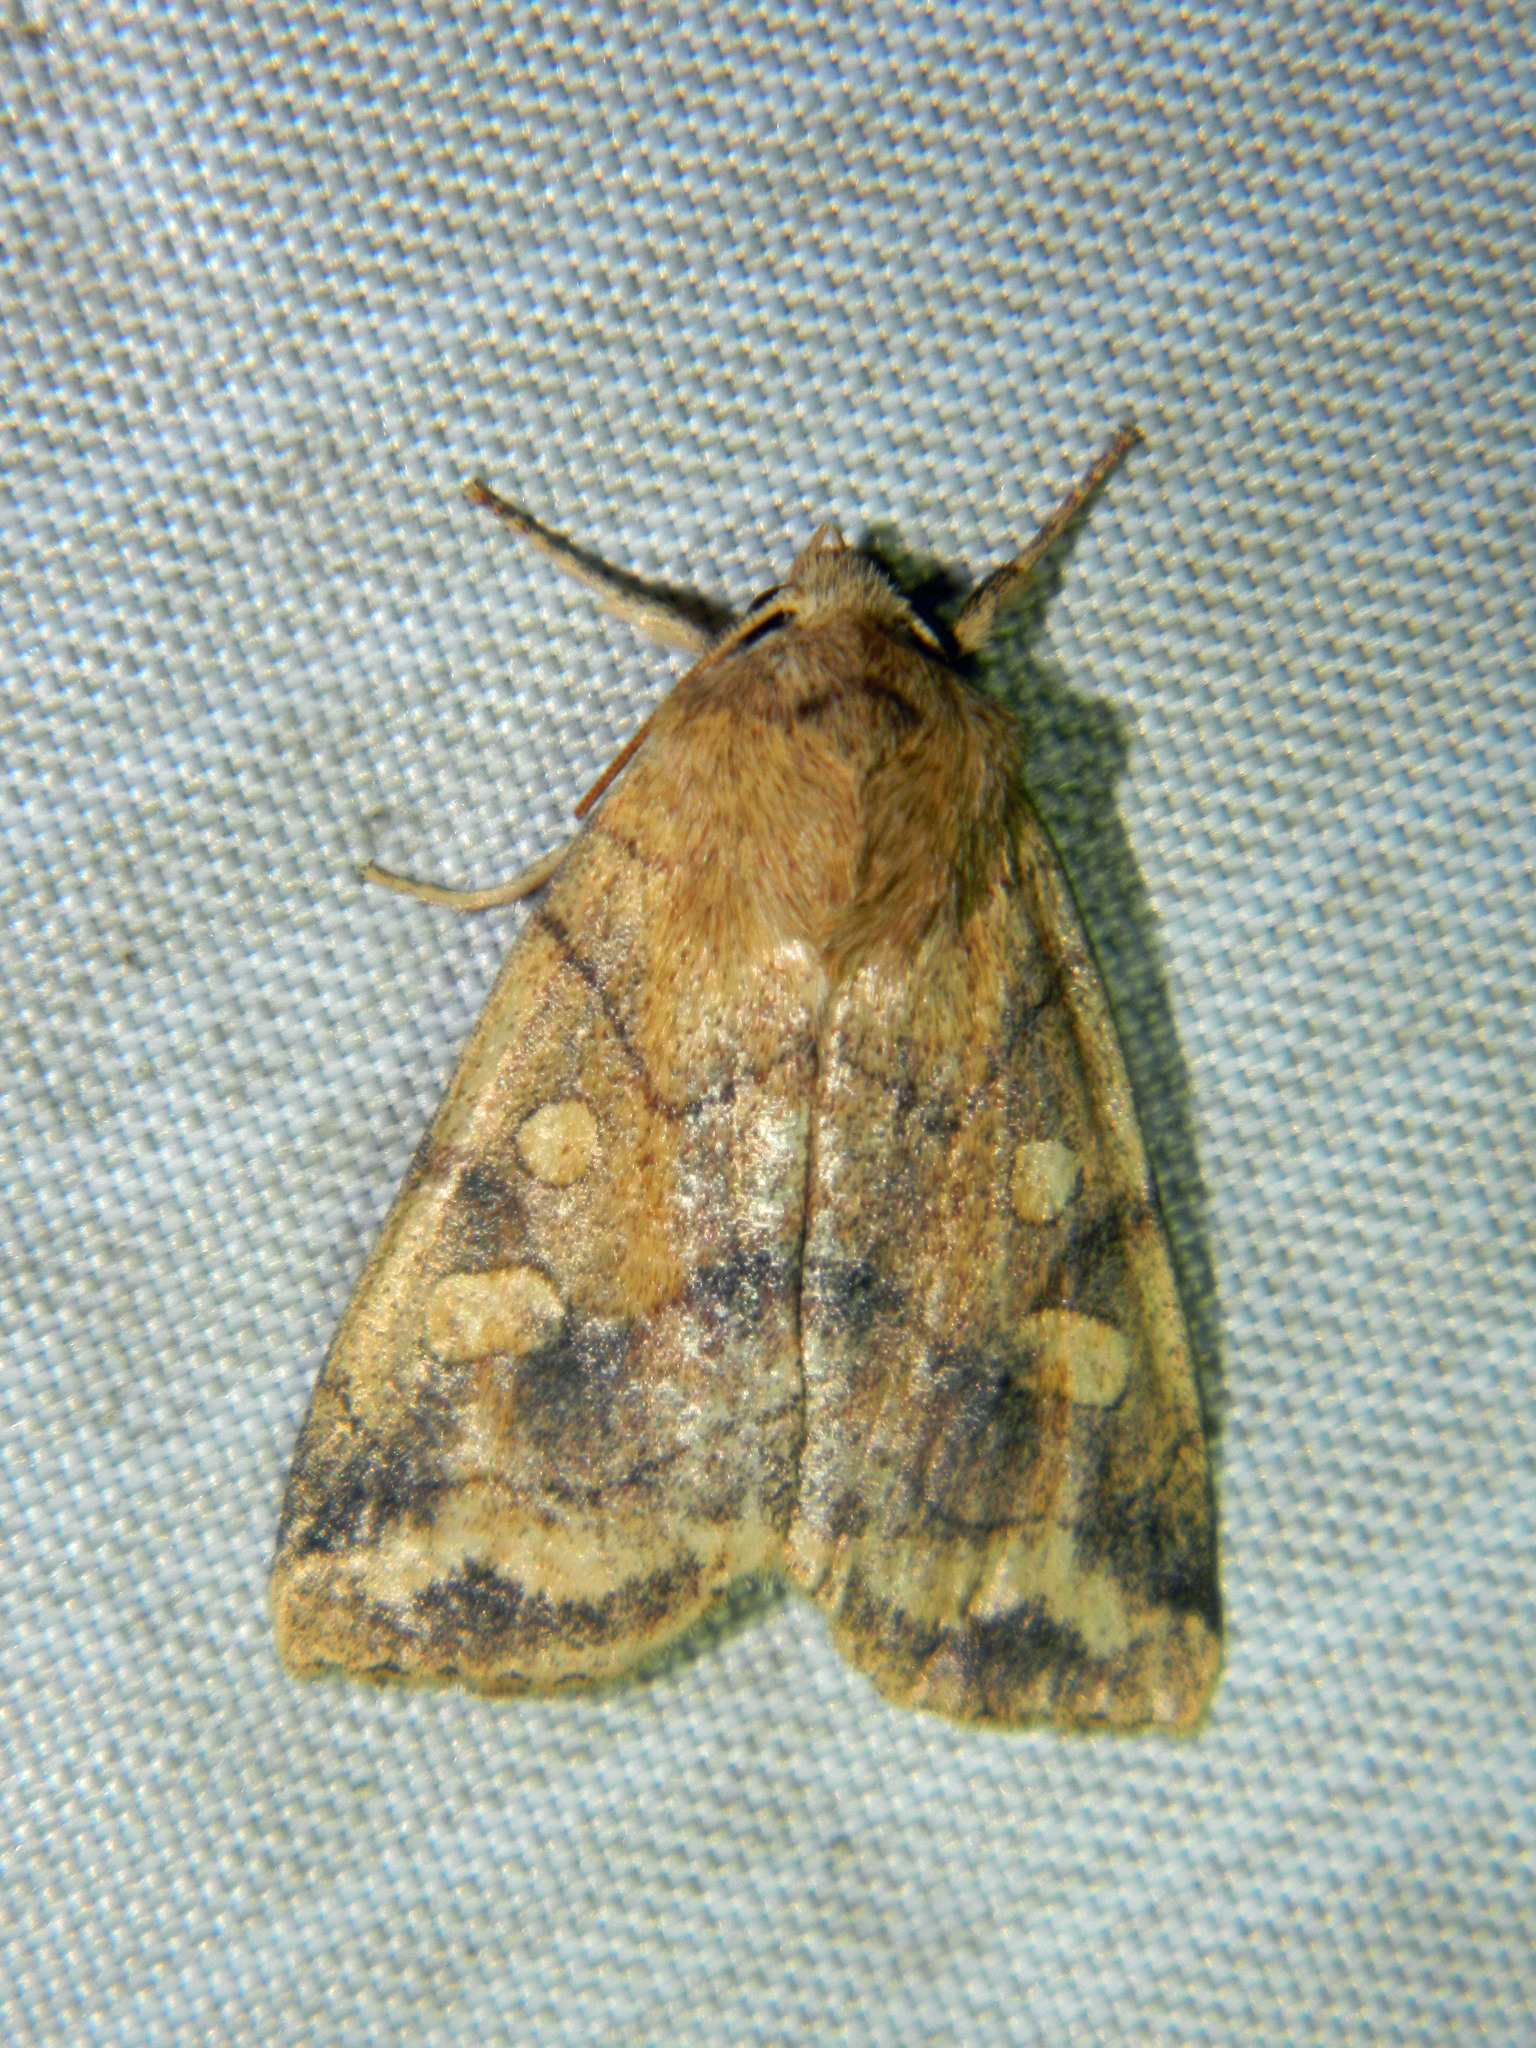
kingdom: Animalia
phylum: Arthropoda
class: Insecta
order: Lepidoptera
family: Noctuidae
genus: Enargia
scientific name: Enargia decolor
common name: Aspen twoleaf tier moth
